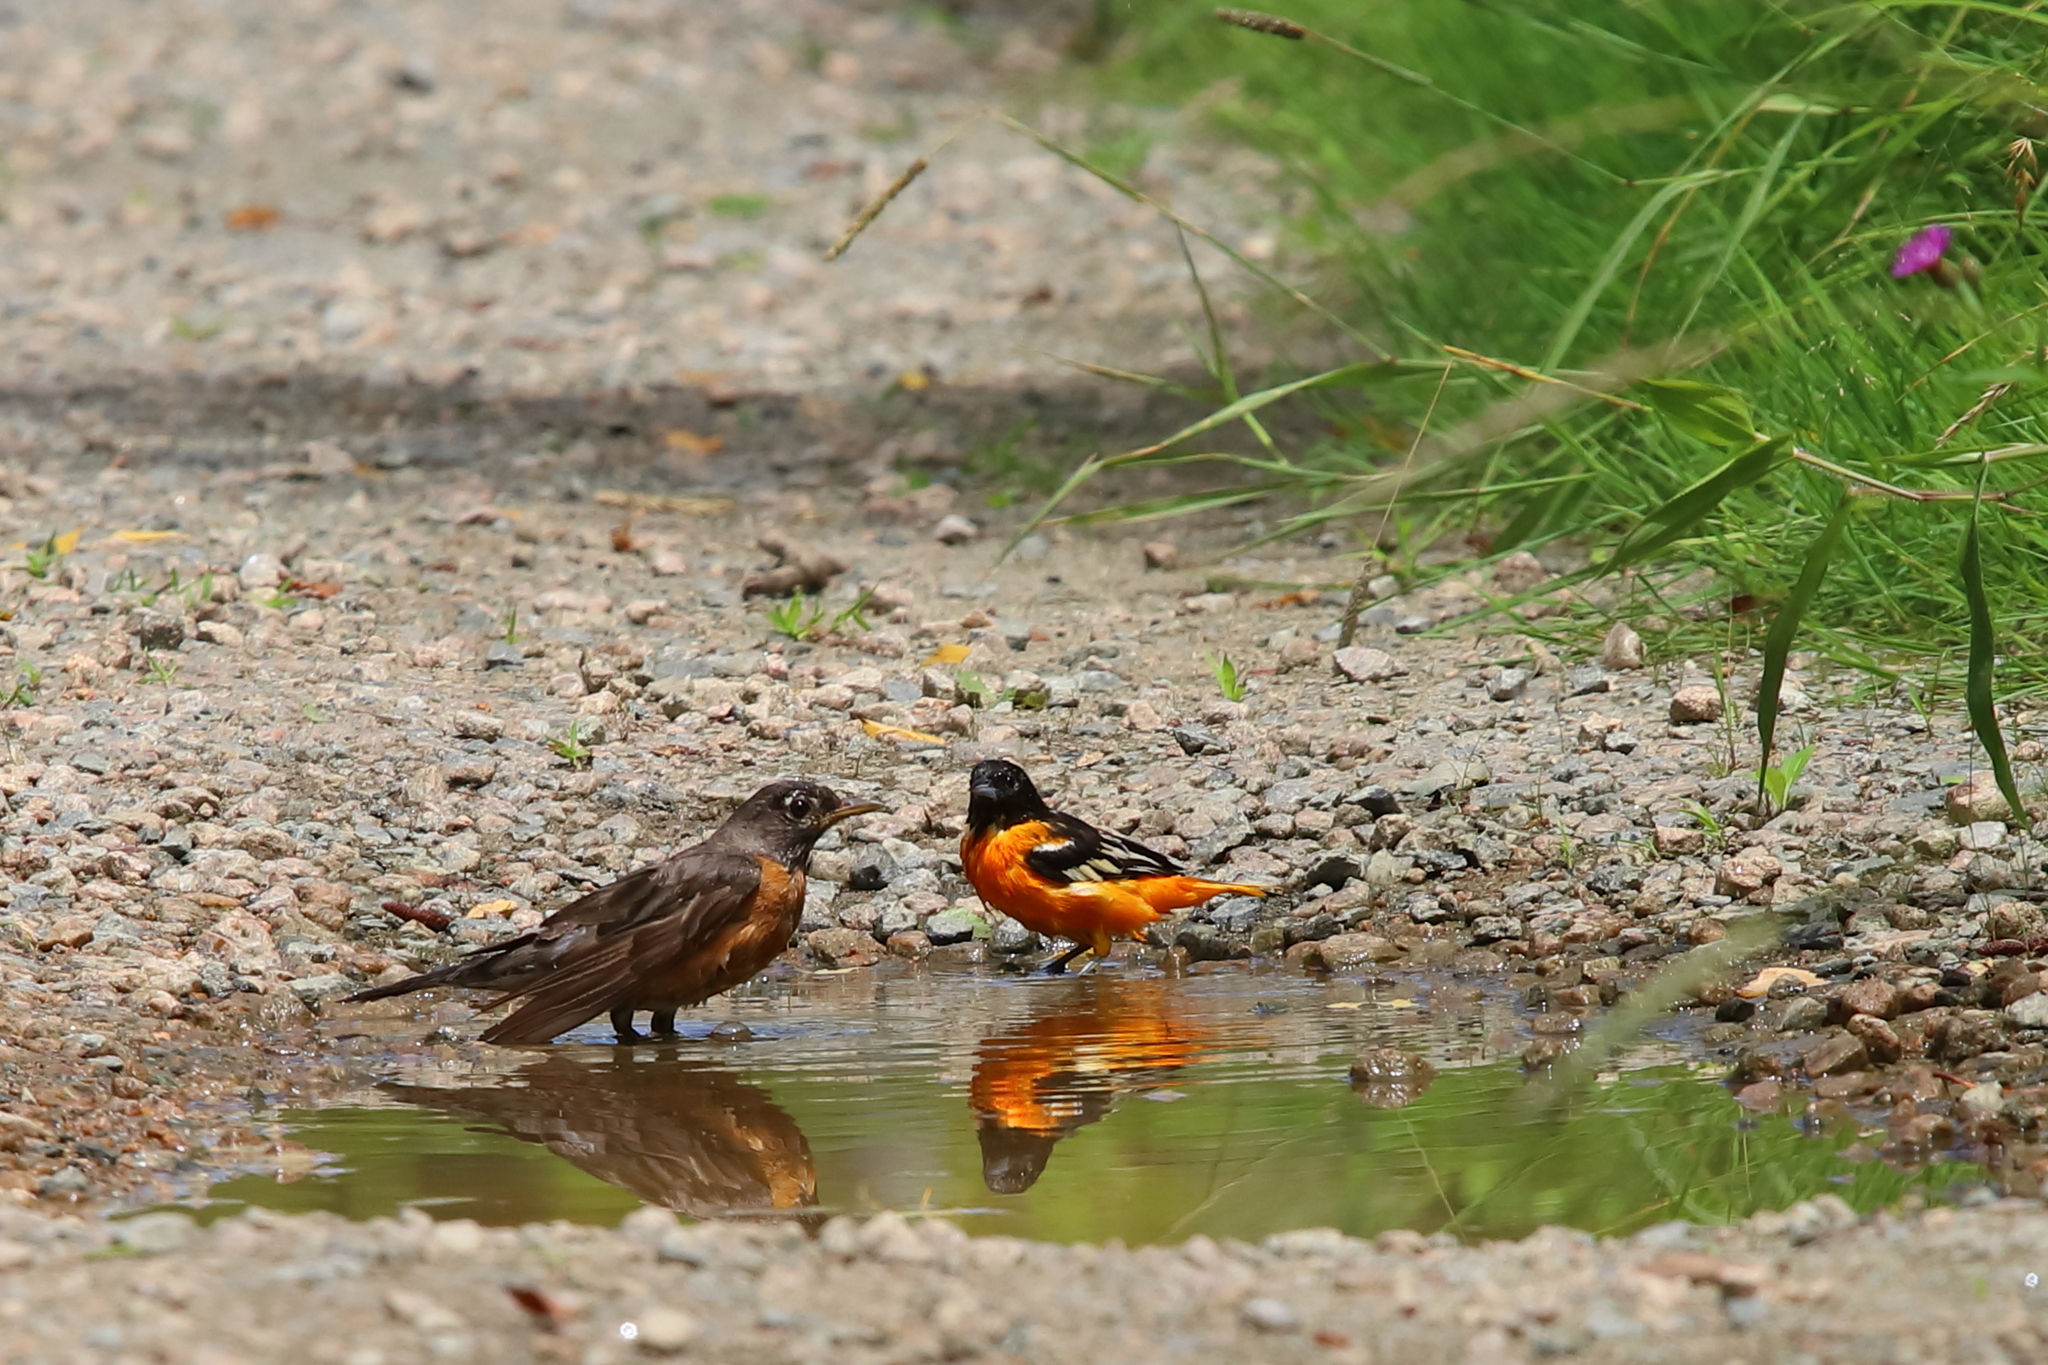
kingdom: Animalia
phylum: Chordata
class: Aves
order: Passeriformes
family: Turdidae
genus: Turdus
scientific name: Turdus migratorius
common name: American robin
